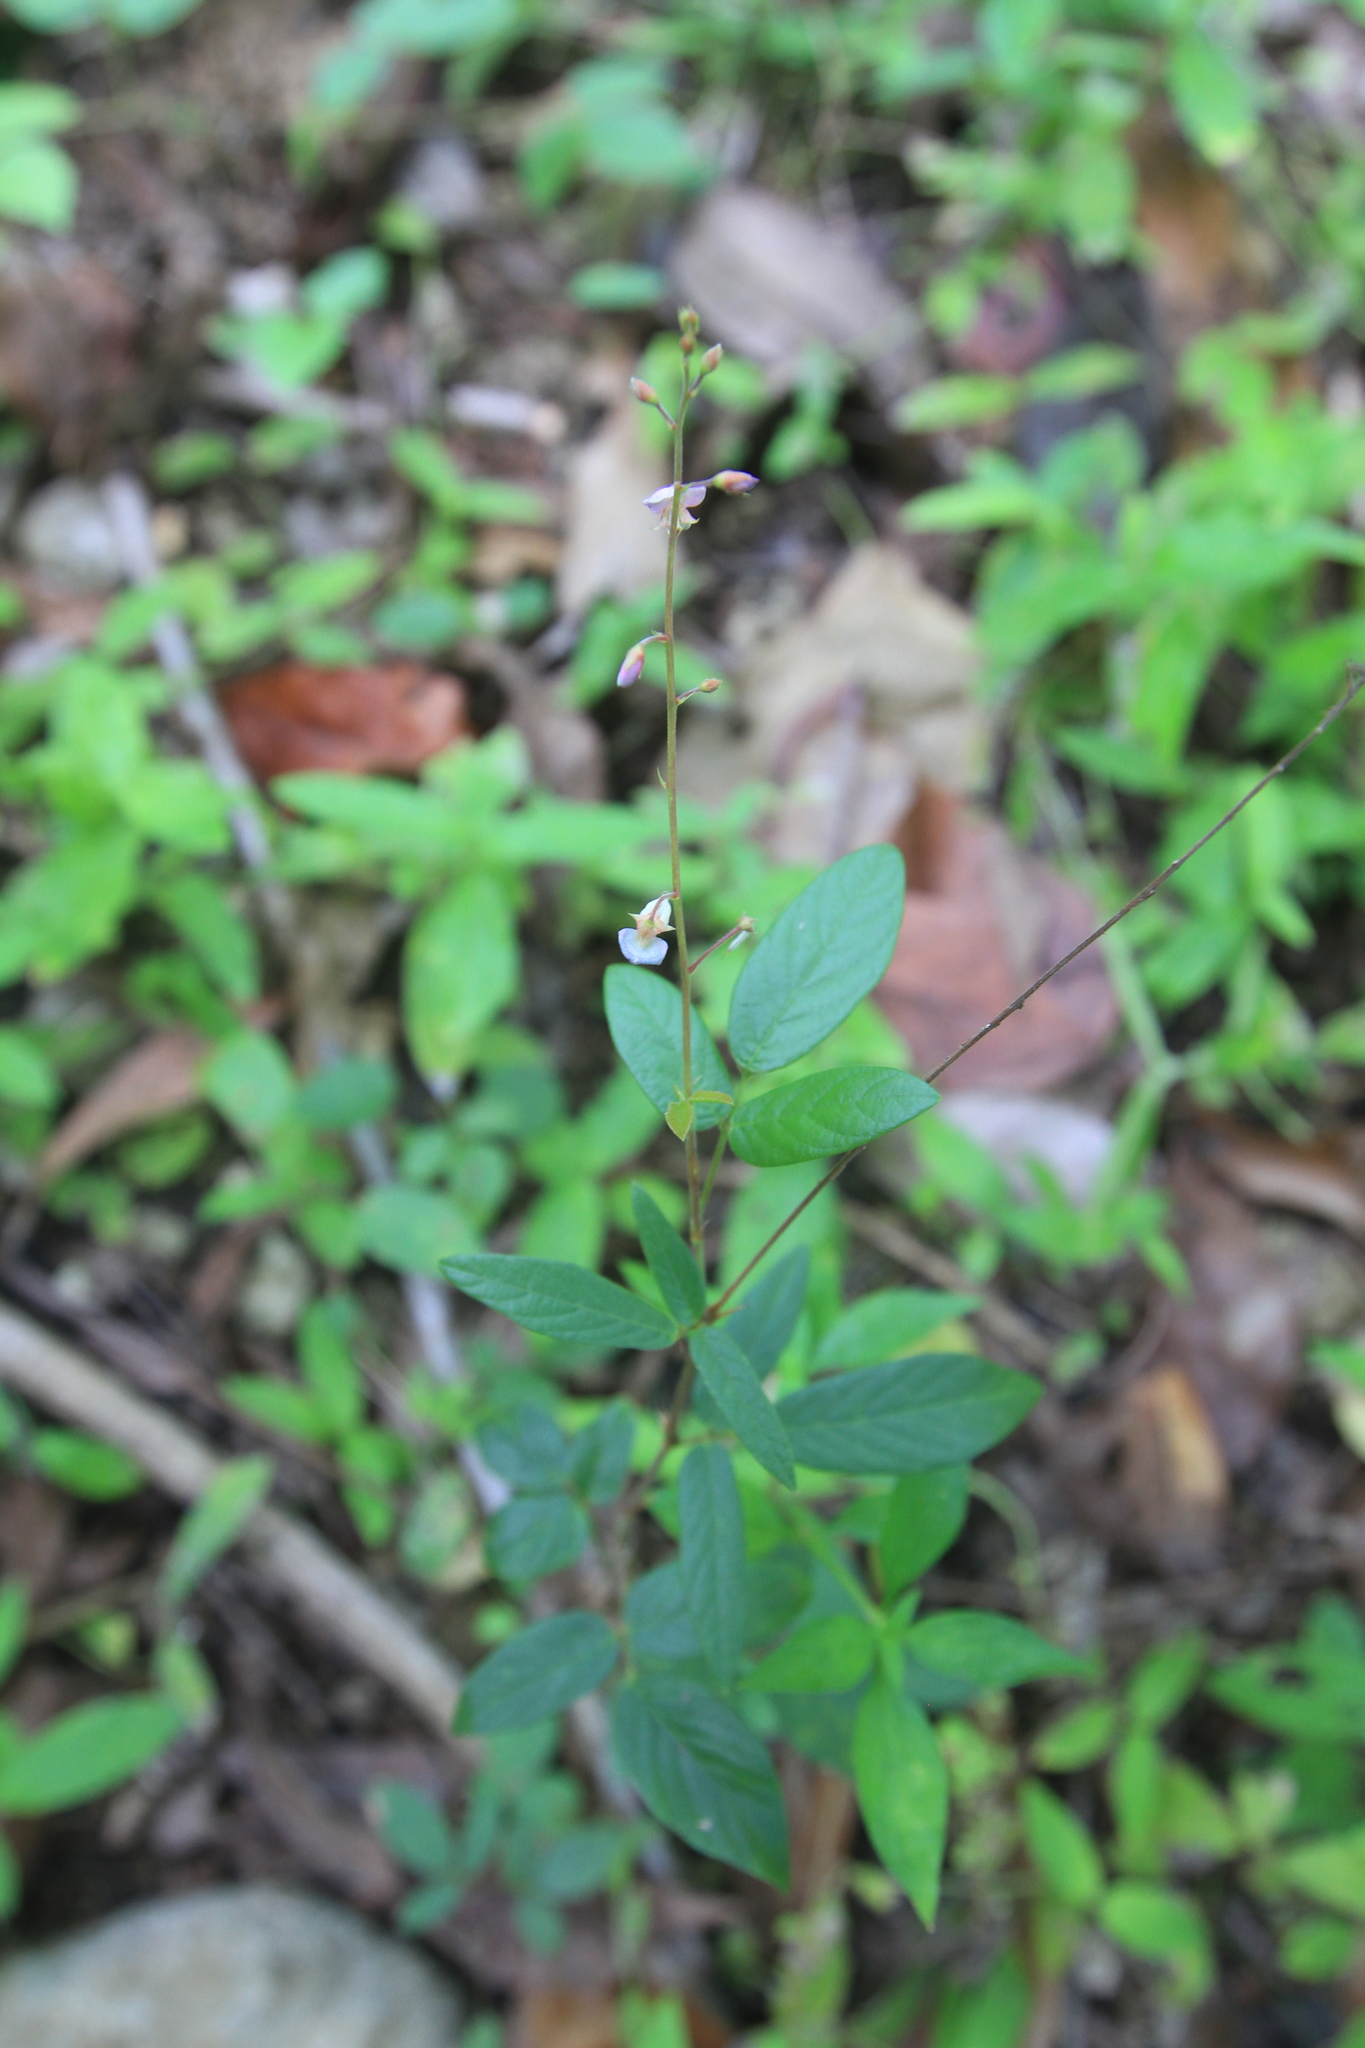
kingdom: Plantae
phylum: Tracheophyta
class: Magnoliopsida
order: Fabales
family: Fabaceae
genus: Desmodium
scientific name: Desmodium incanum
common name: Tickclover
